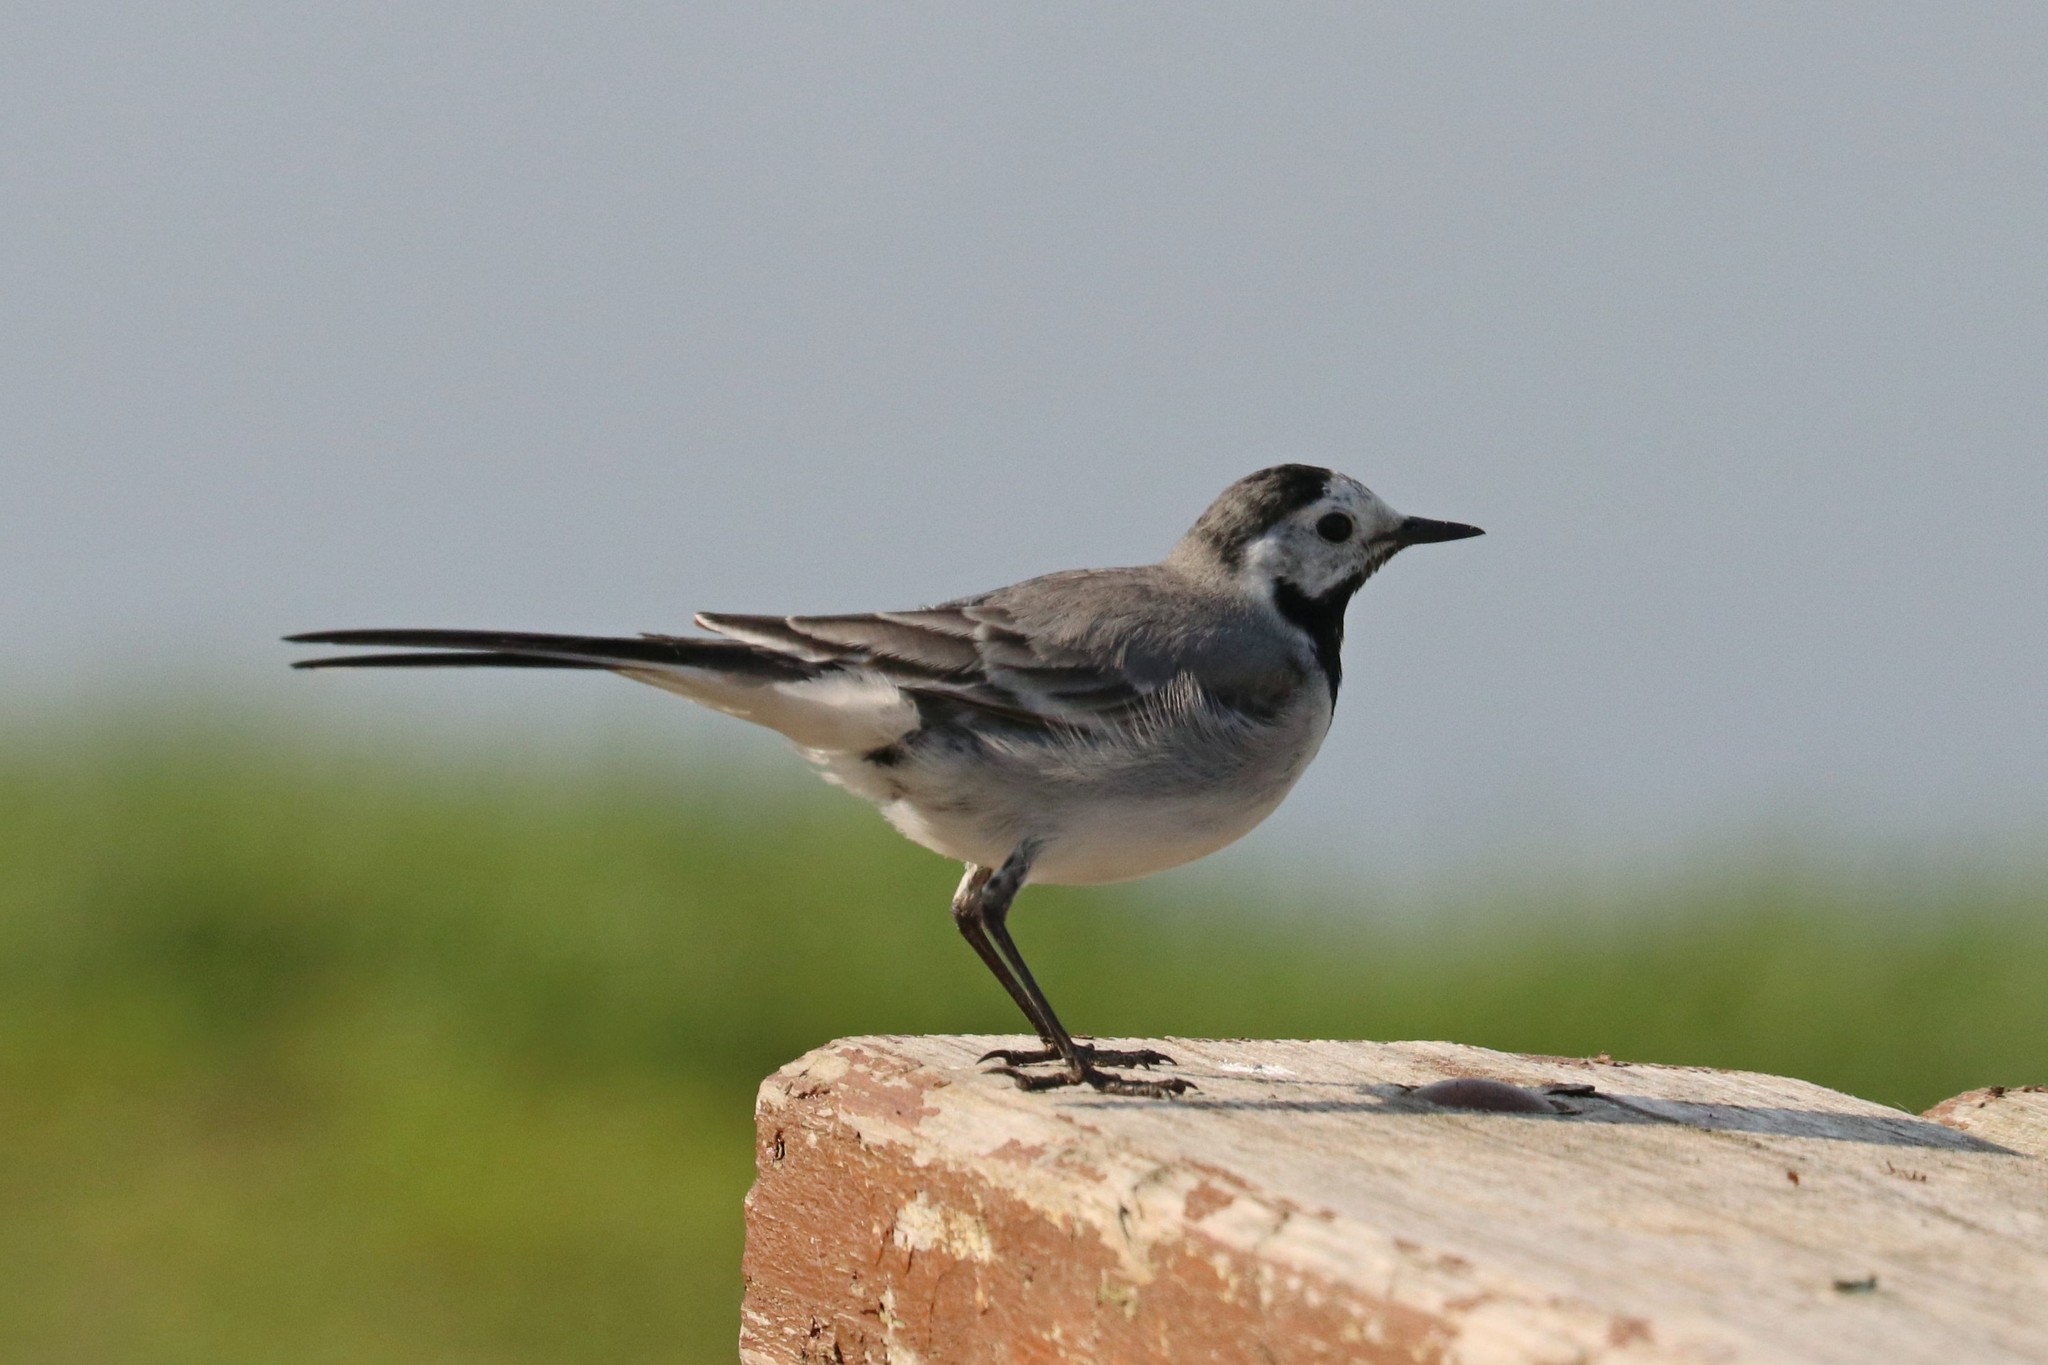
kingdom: Animalia
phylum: Chordata
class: Aves
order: Passeriformes
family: Motacillidae
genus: Motacilla
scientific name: Motacilla alba
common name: White wagtail
